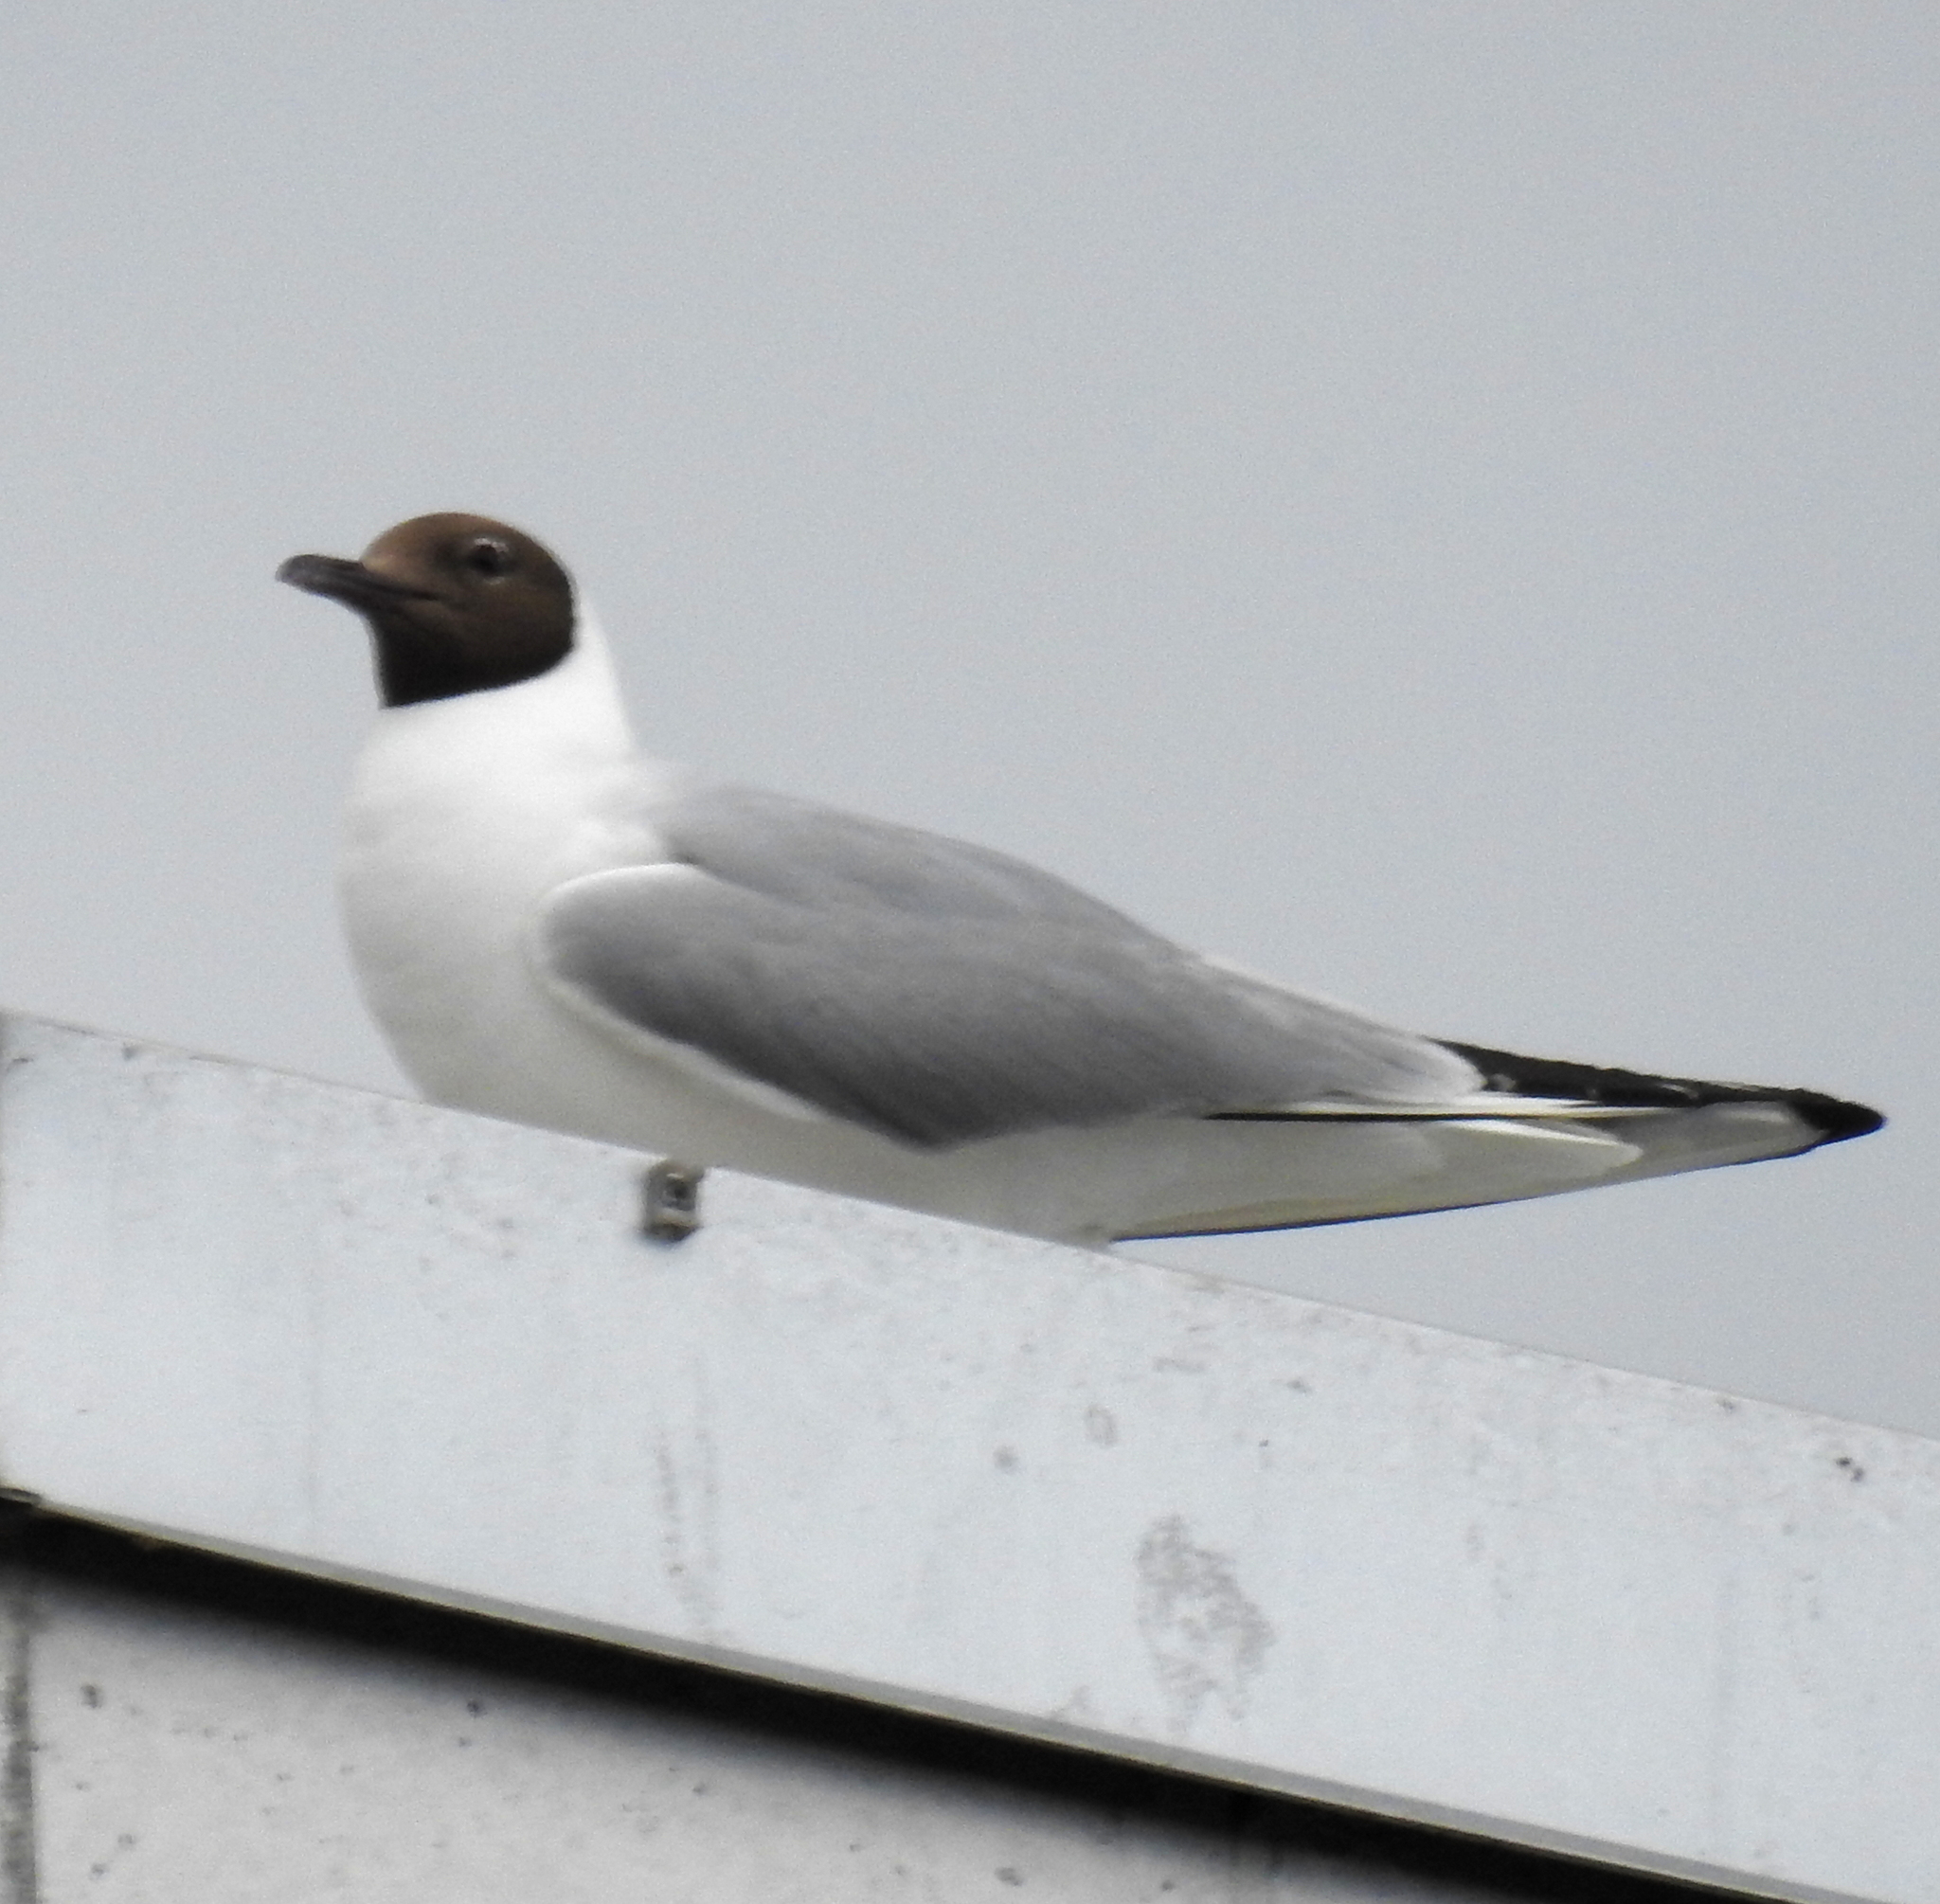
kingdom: Animalia
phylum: Chordata
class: Aves
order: Charadriiformes
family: Laridae
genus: Chroicocephalus
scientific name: Chroicocephalus ridibundus
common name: Black-headed gull
